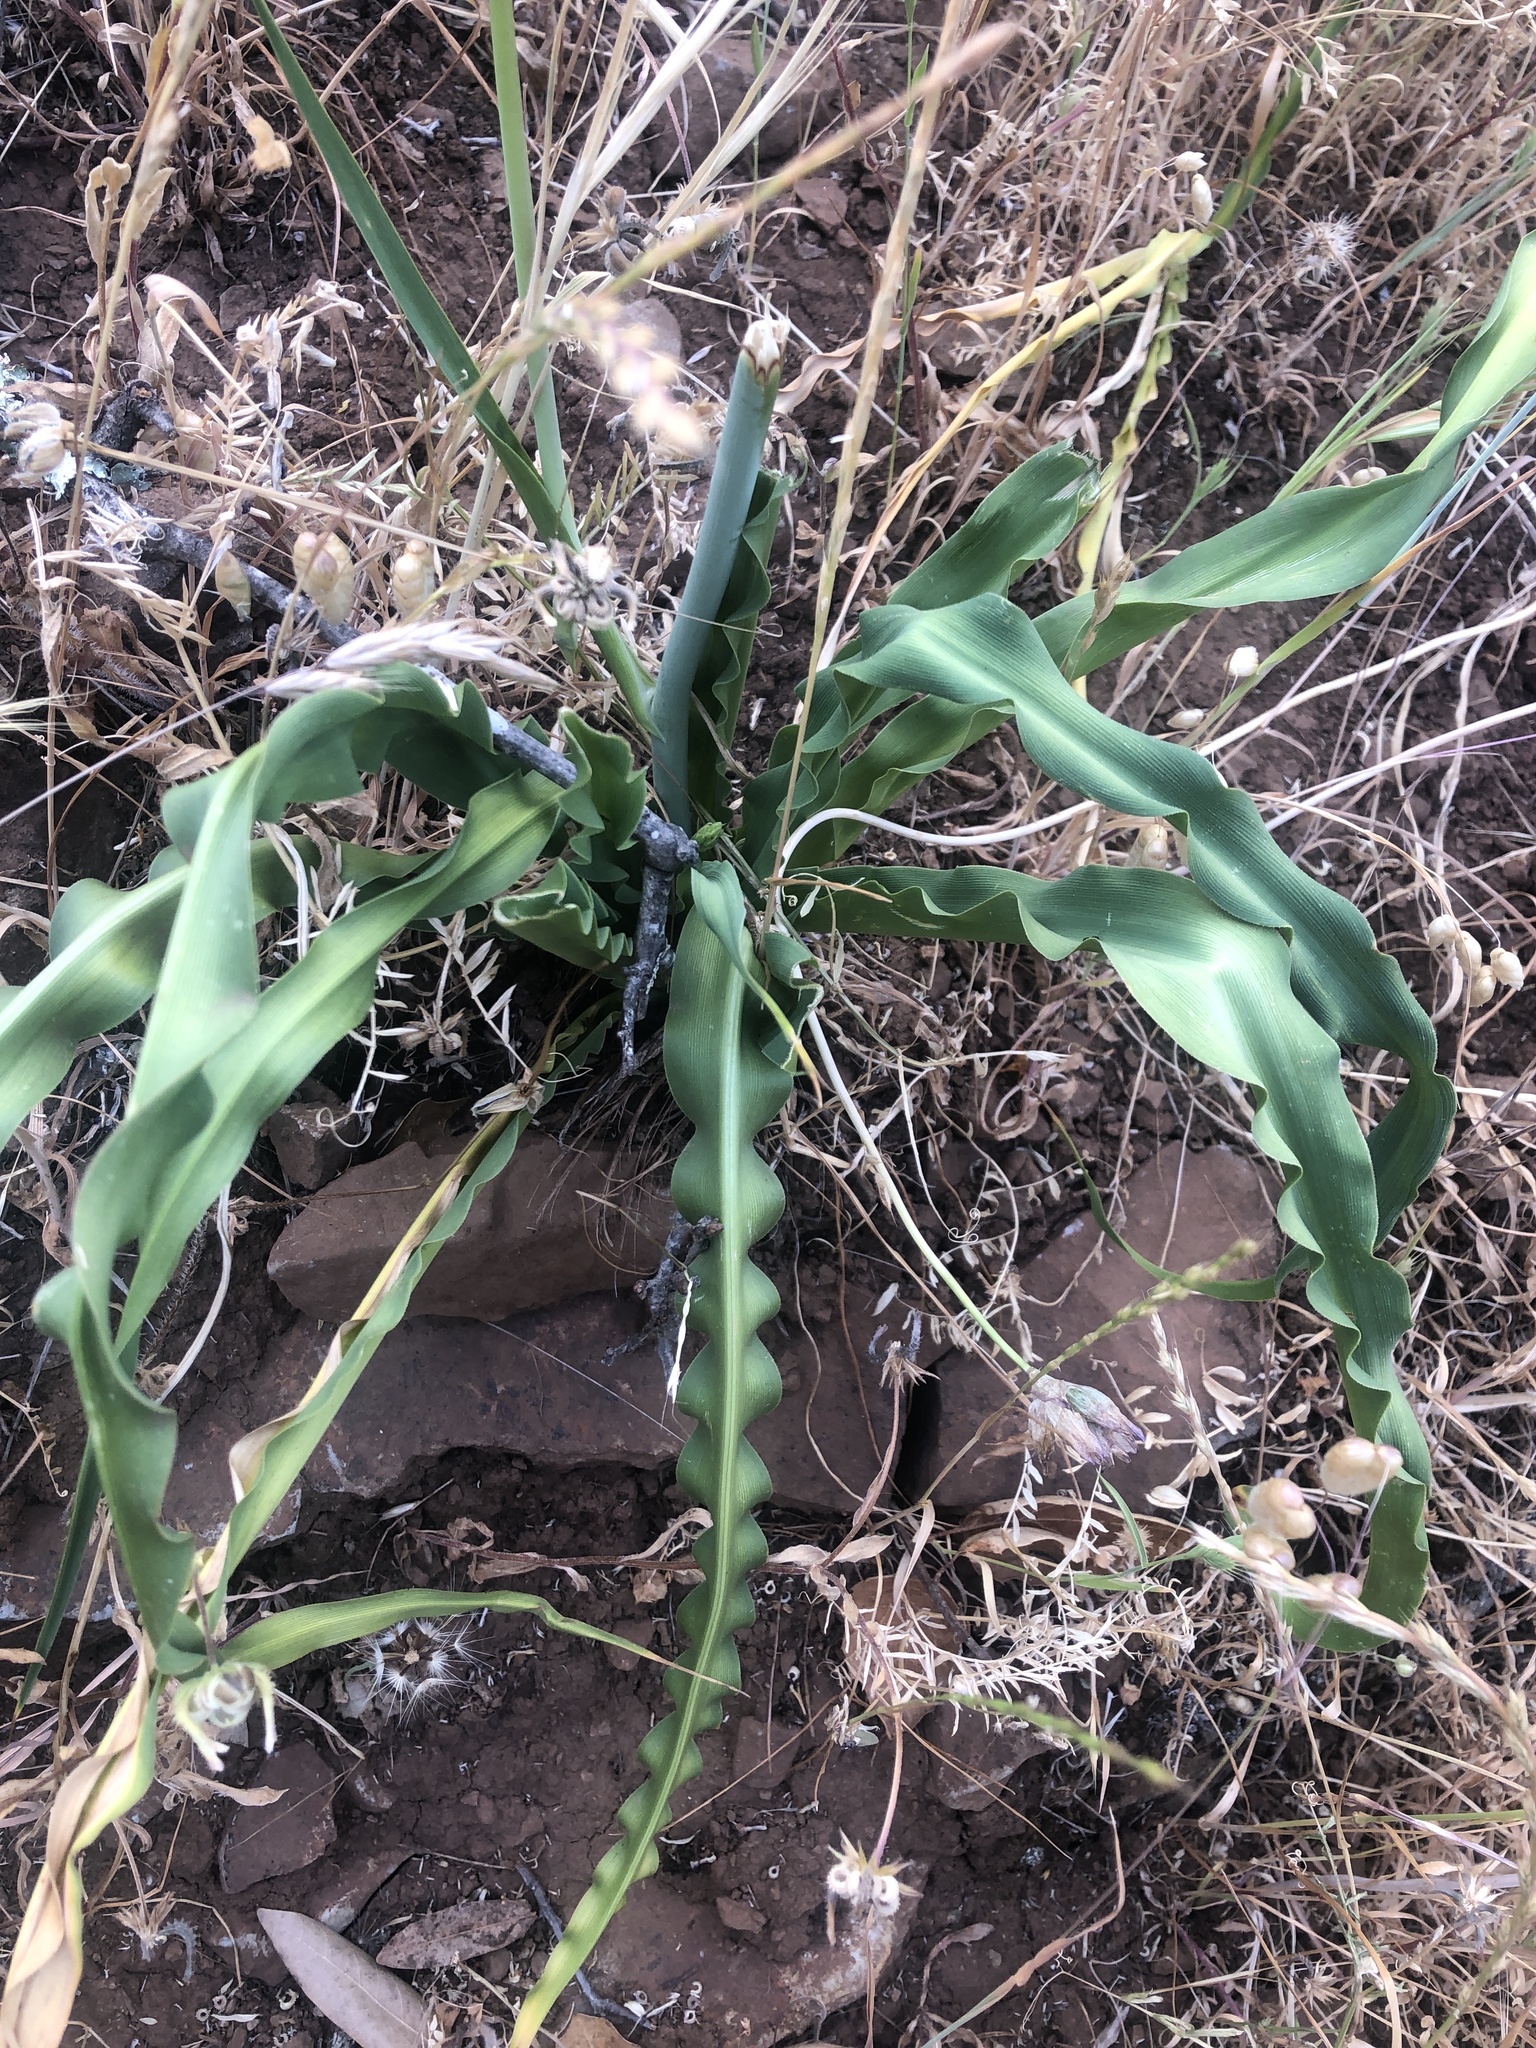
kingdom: Plantae
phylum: Tracheophyta
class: Liliopsida
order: Asparagales
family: Asparagaceae
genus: Chlorogalum
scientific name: Chlorogalum pomeridianum
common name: Amole
